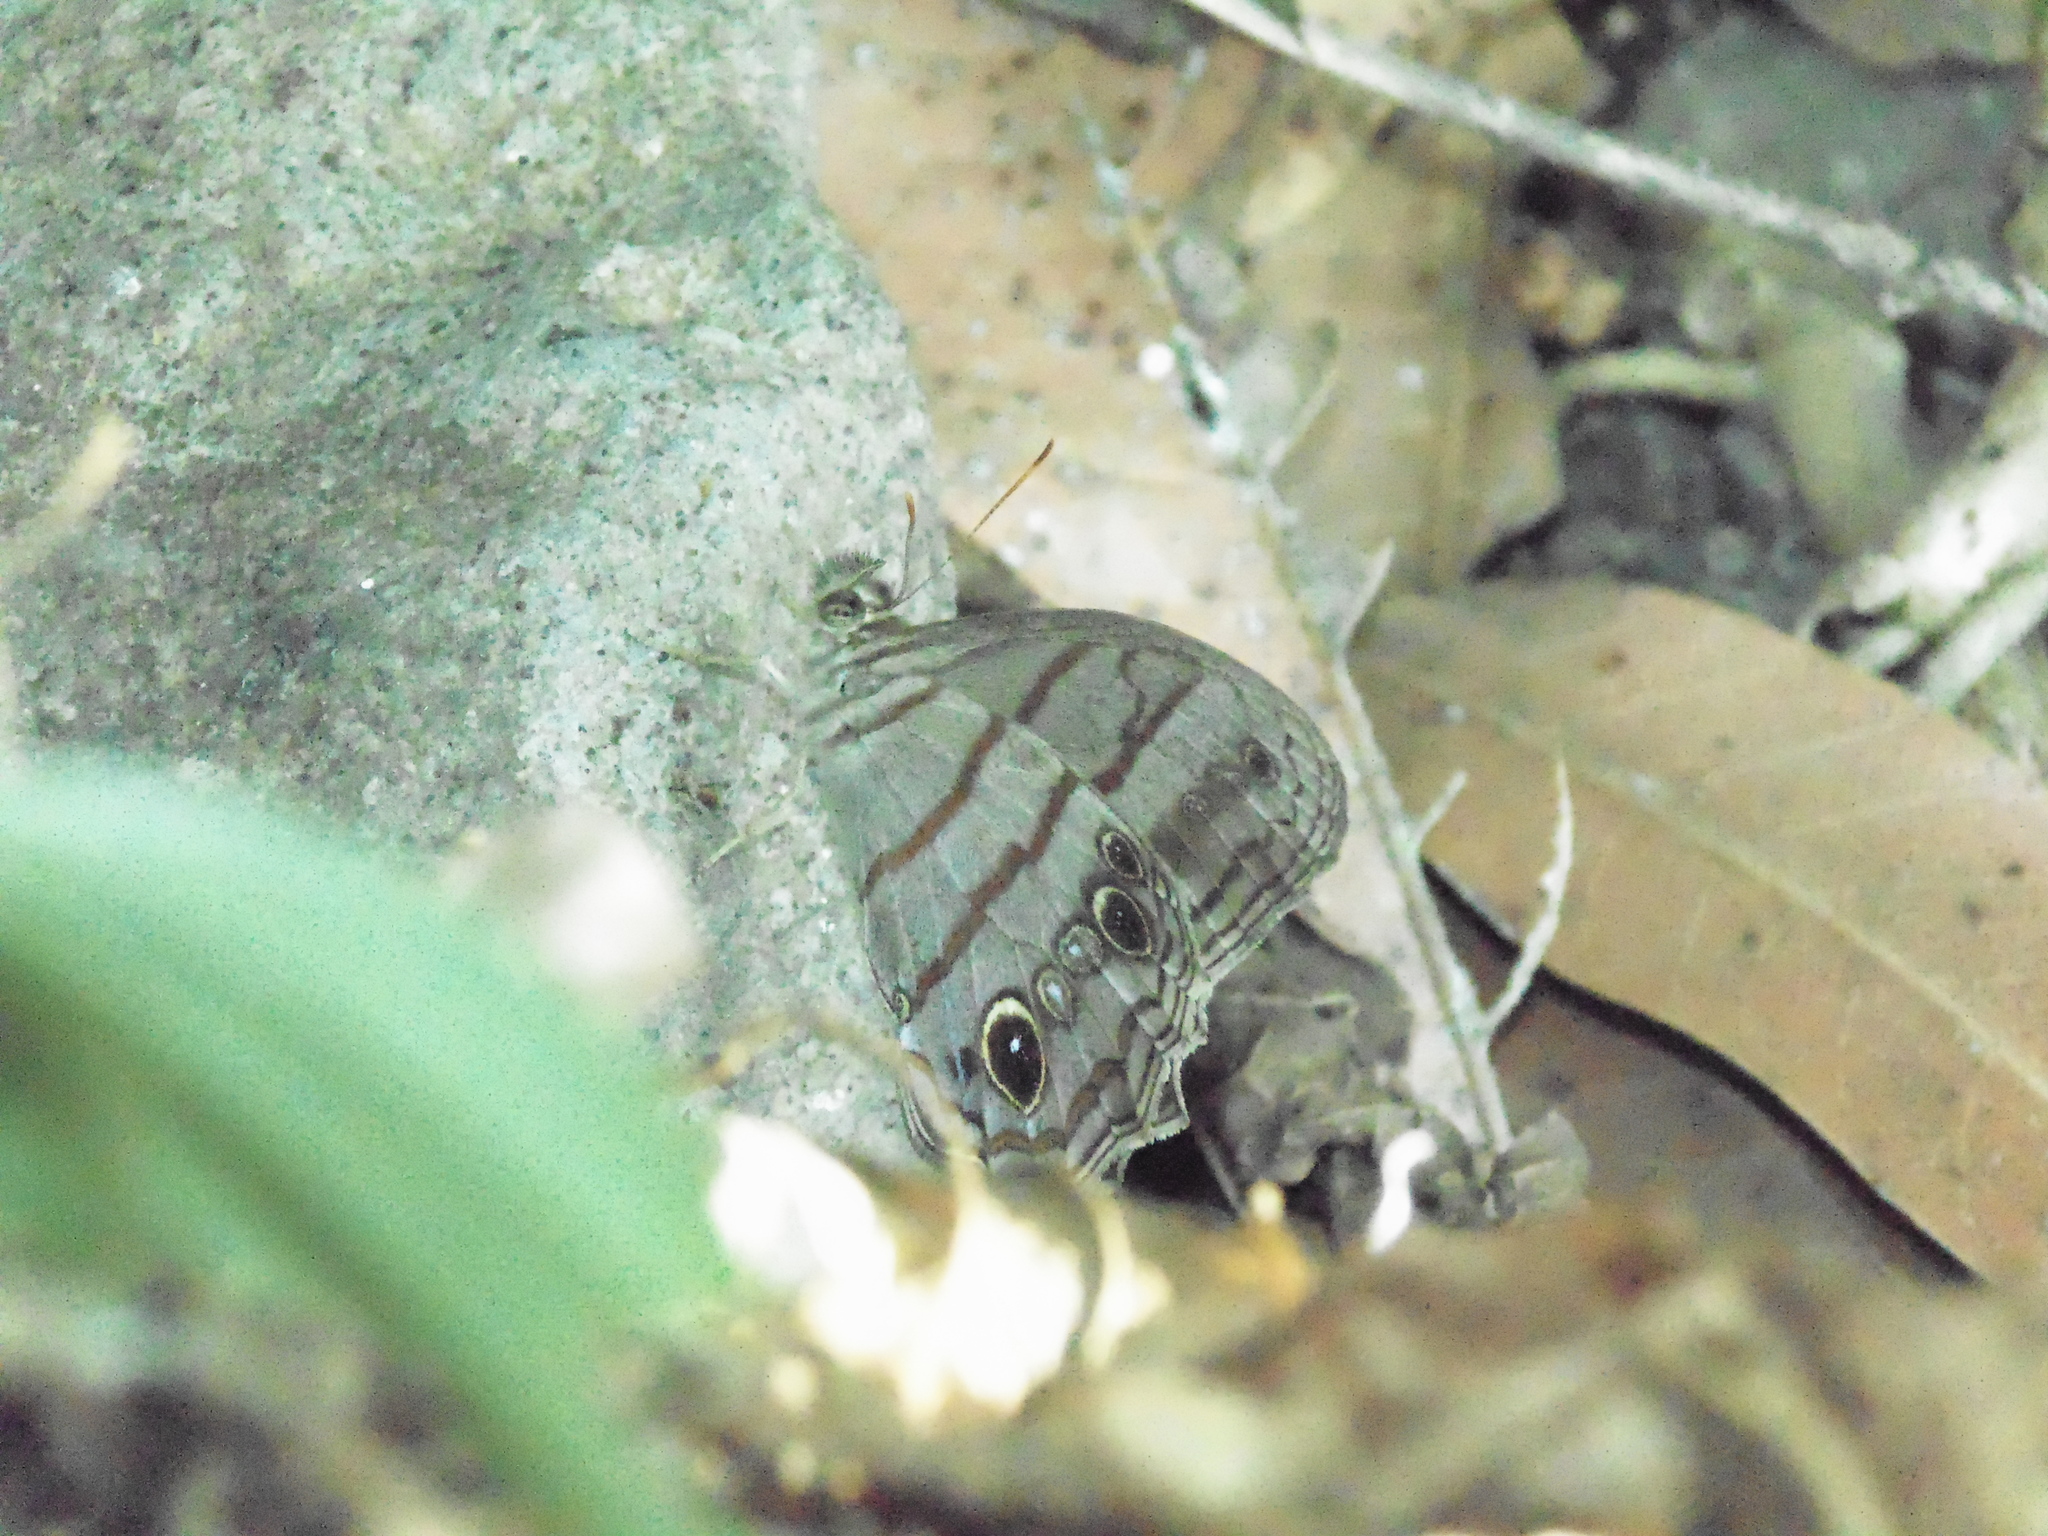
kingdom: Animalia
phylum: Arthropoda
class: Insecta
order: Lepidoptera
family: Nymphalidae
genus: Magneuptychia
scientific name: Magneuptychia libye
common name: Blue-gray satyr
